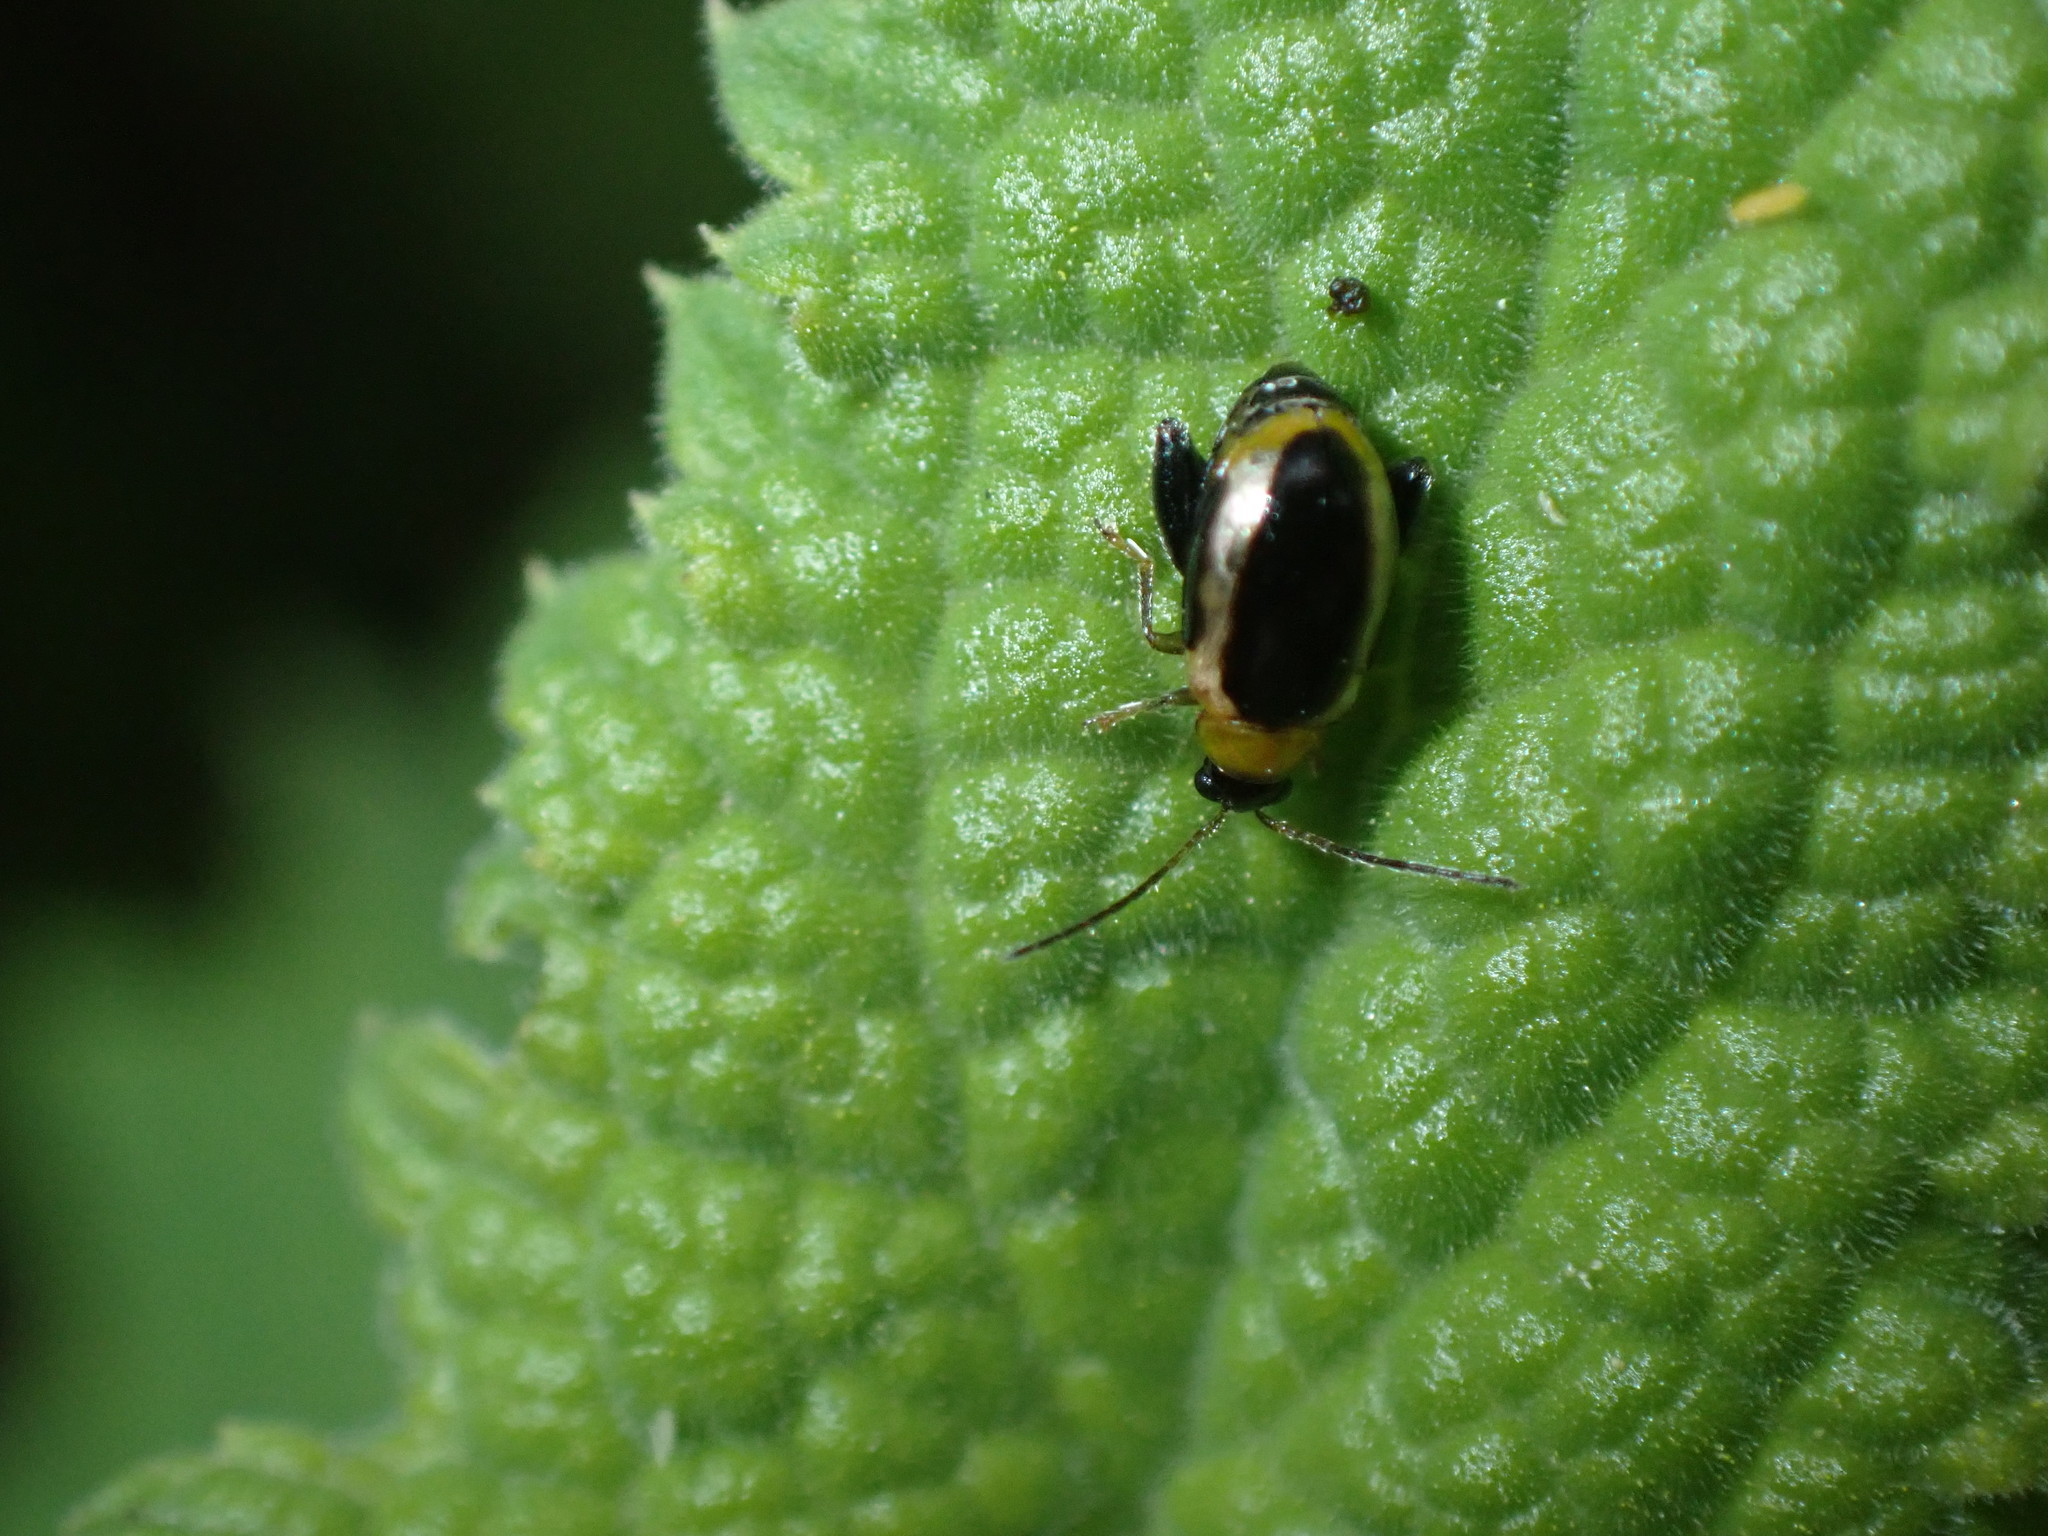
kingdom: Animalia
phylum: Arthropoda
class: Insecta
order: Coleoptera
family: Chrysomelidae
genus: Longitarsus
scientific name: Longitarsus nigrofasciatus
